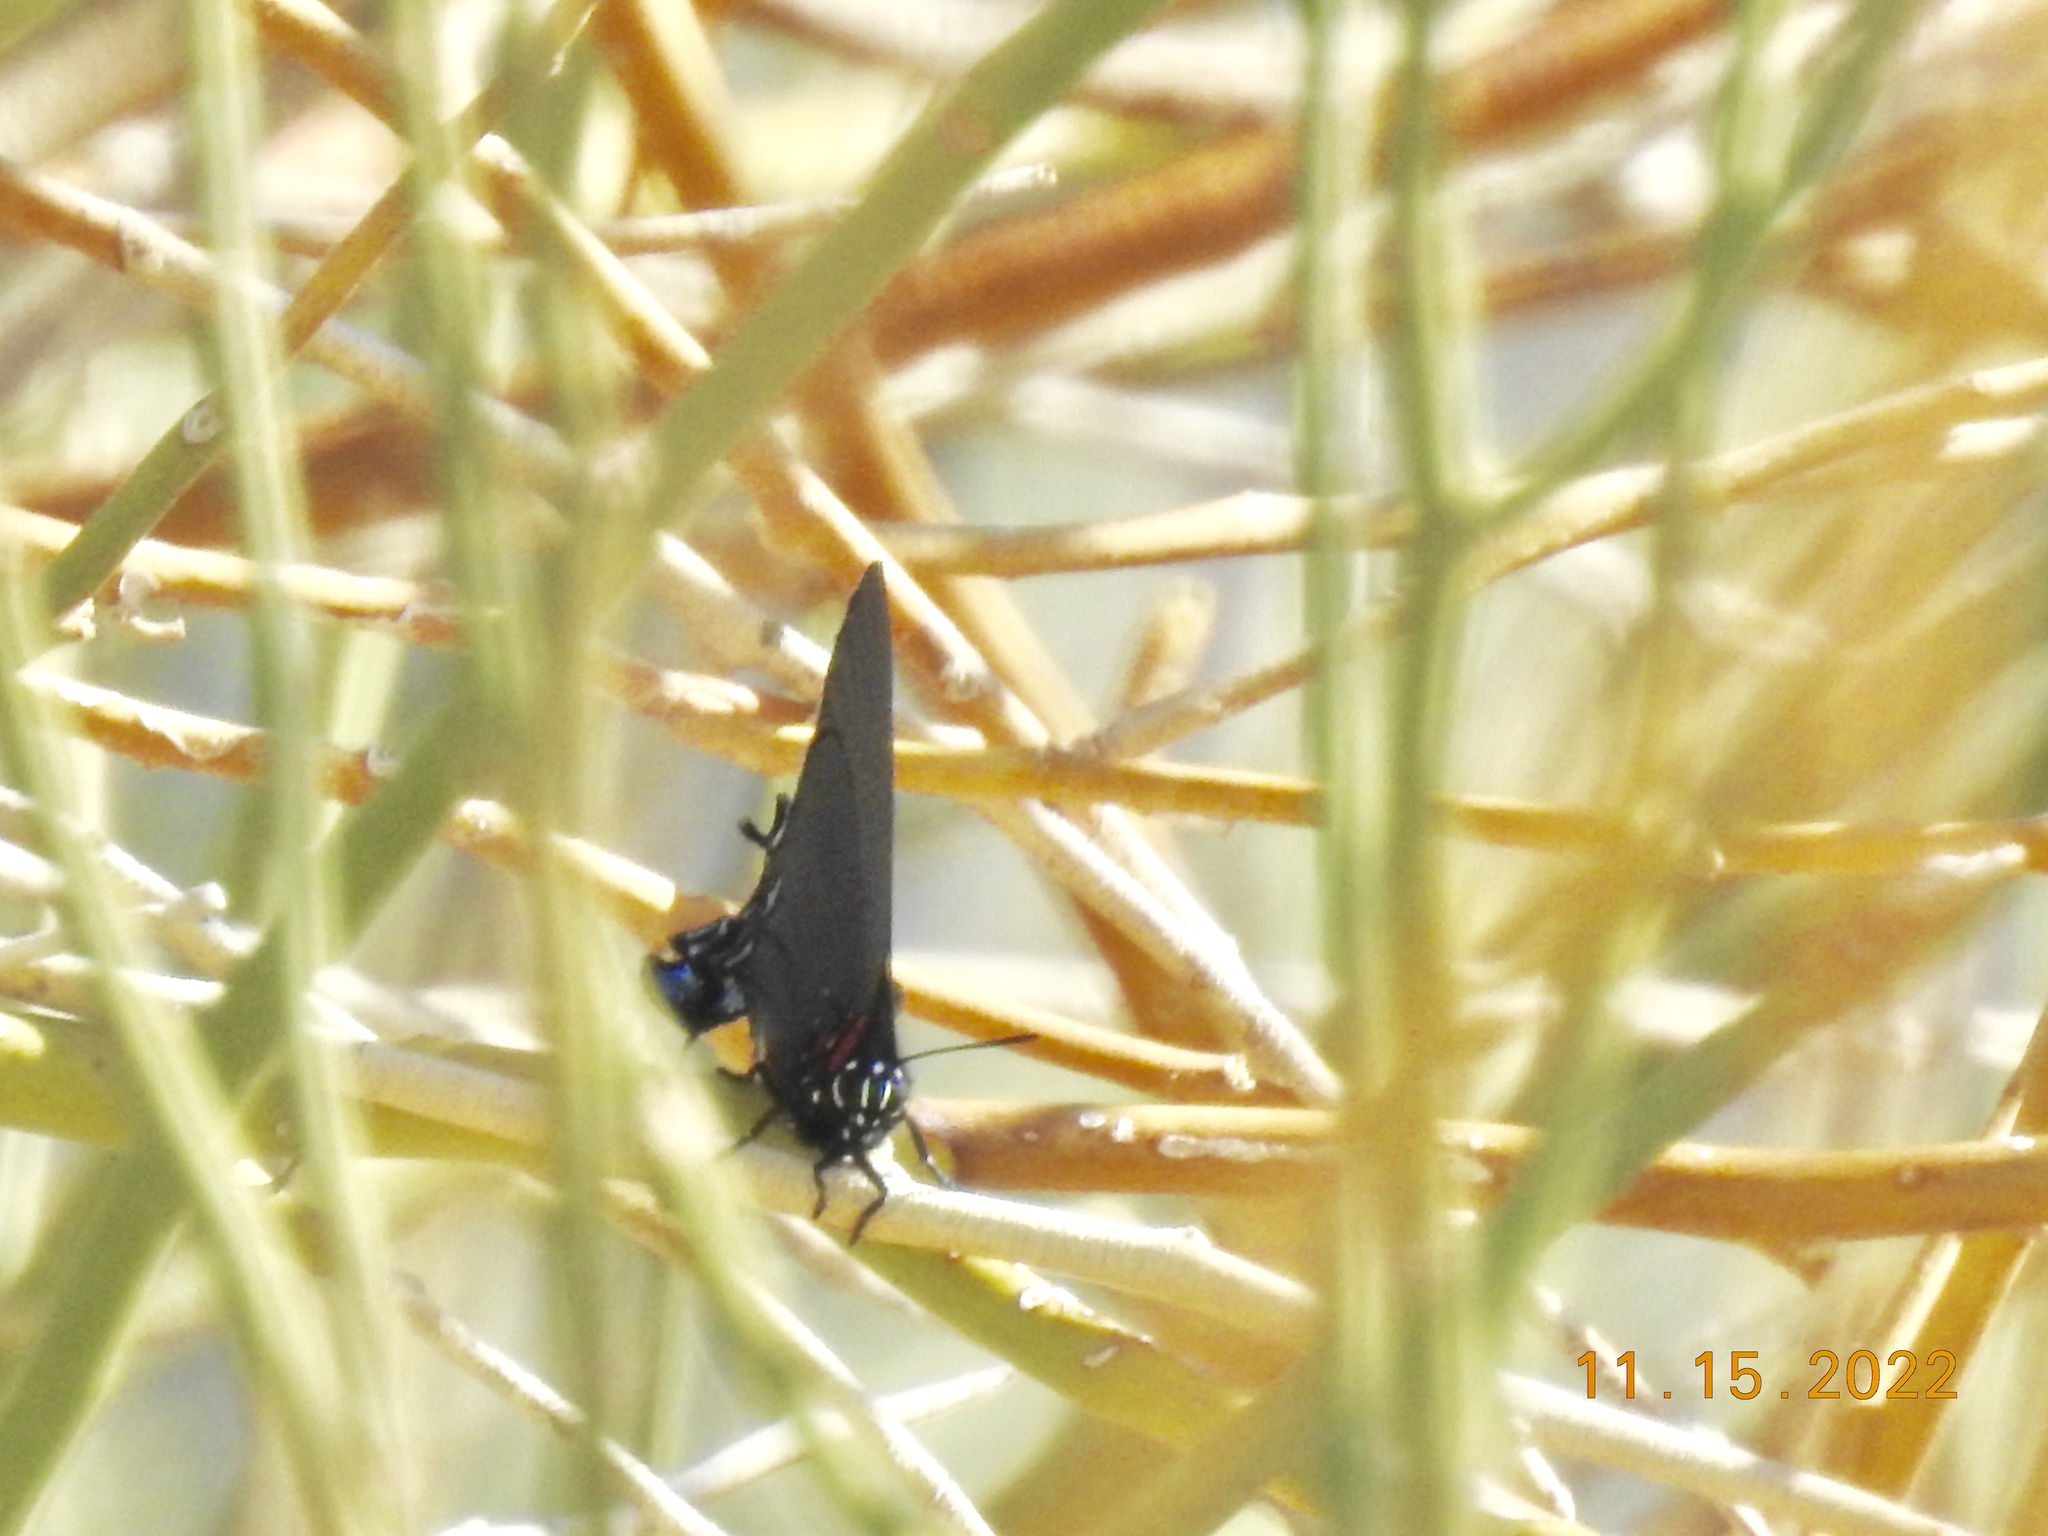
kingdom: Animalia
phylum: Arthropoda
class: Insecta
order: Lepidoptera
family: Lycaenidae
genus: Atlides
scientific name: Atlides halesus
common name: Great purple hairstreak
